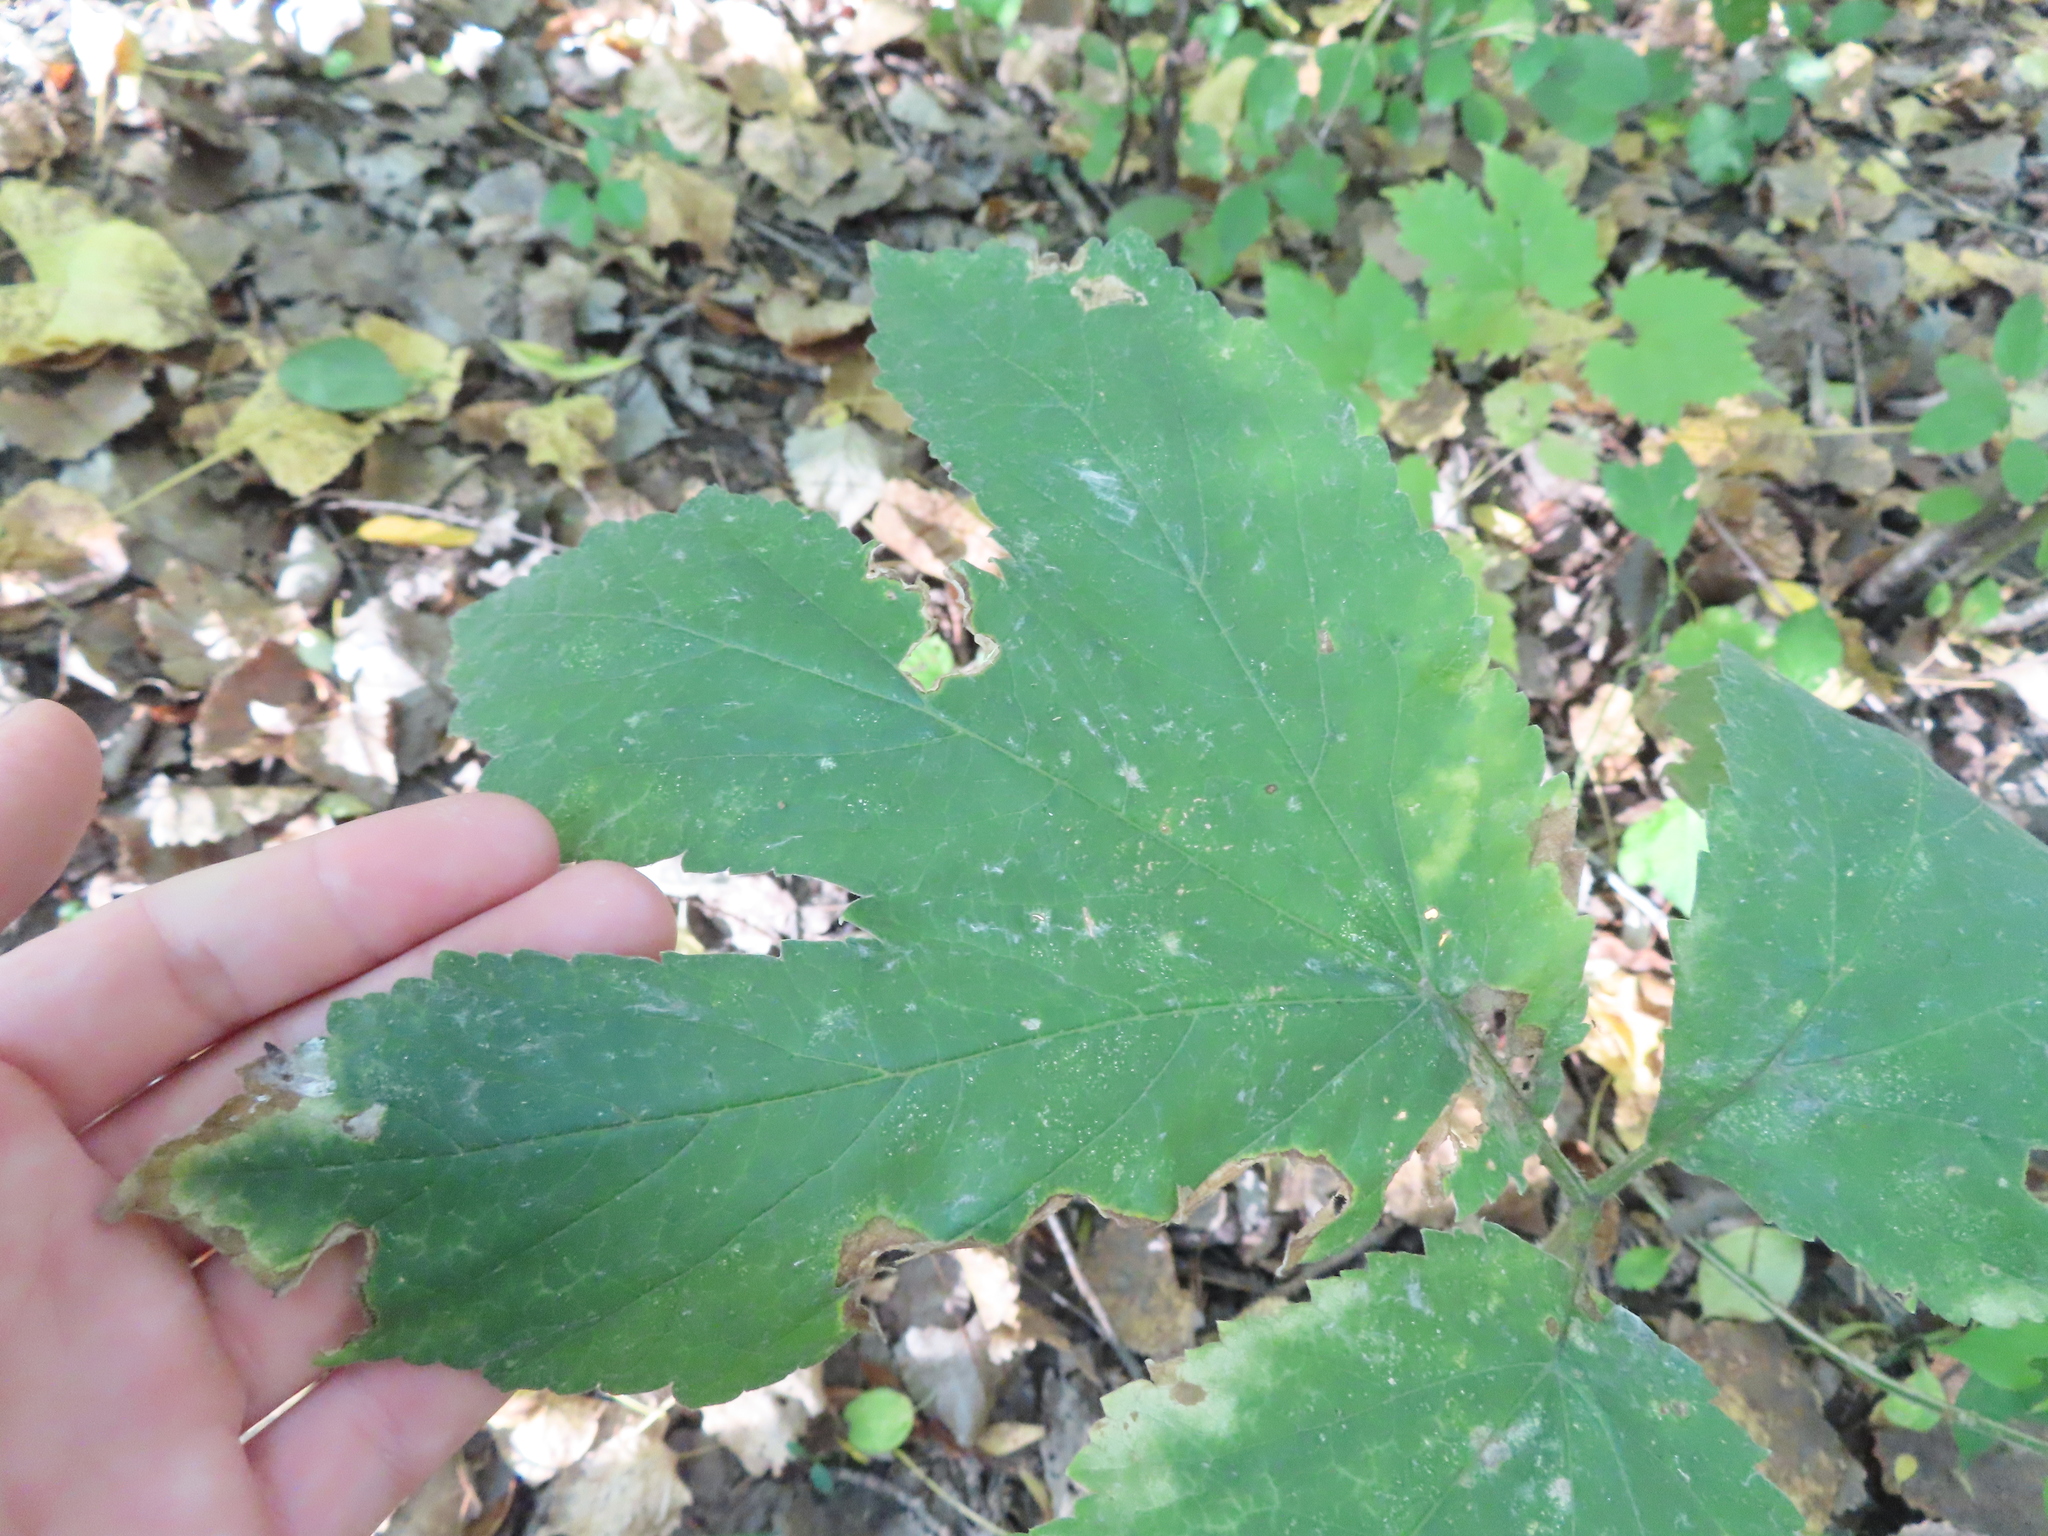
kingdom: Plantae
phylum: Tracheophyta
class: Magnoliopsida
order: Apiales
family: Apiaceae
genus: Heracleum
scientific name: Heracleum maximum
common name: American cow parsnip
